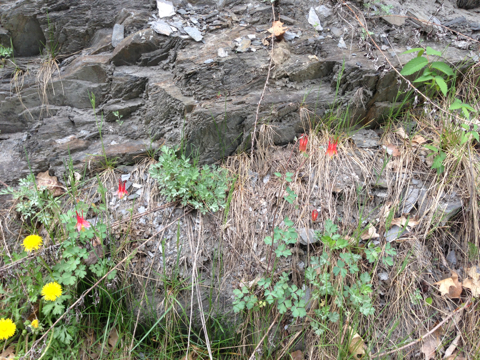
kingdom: Plantae
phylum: Tracheophyta
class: Magnoliopsida
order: Ranunculales
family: Ranunculaceae
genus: Aquilegia
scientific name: Aquilegia canadensis
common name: American columbine
